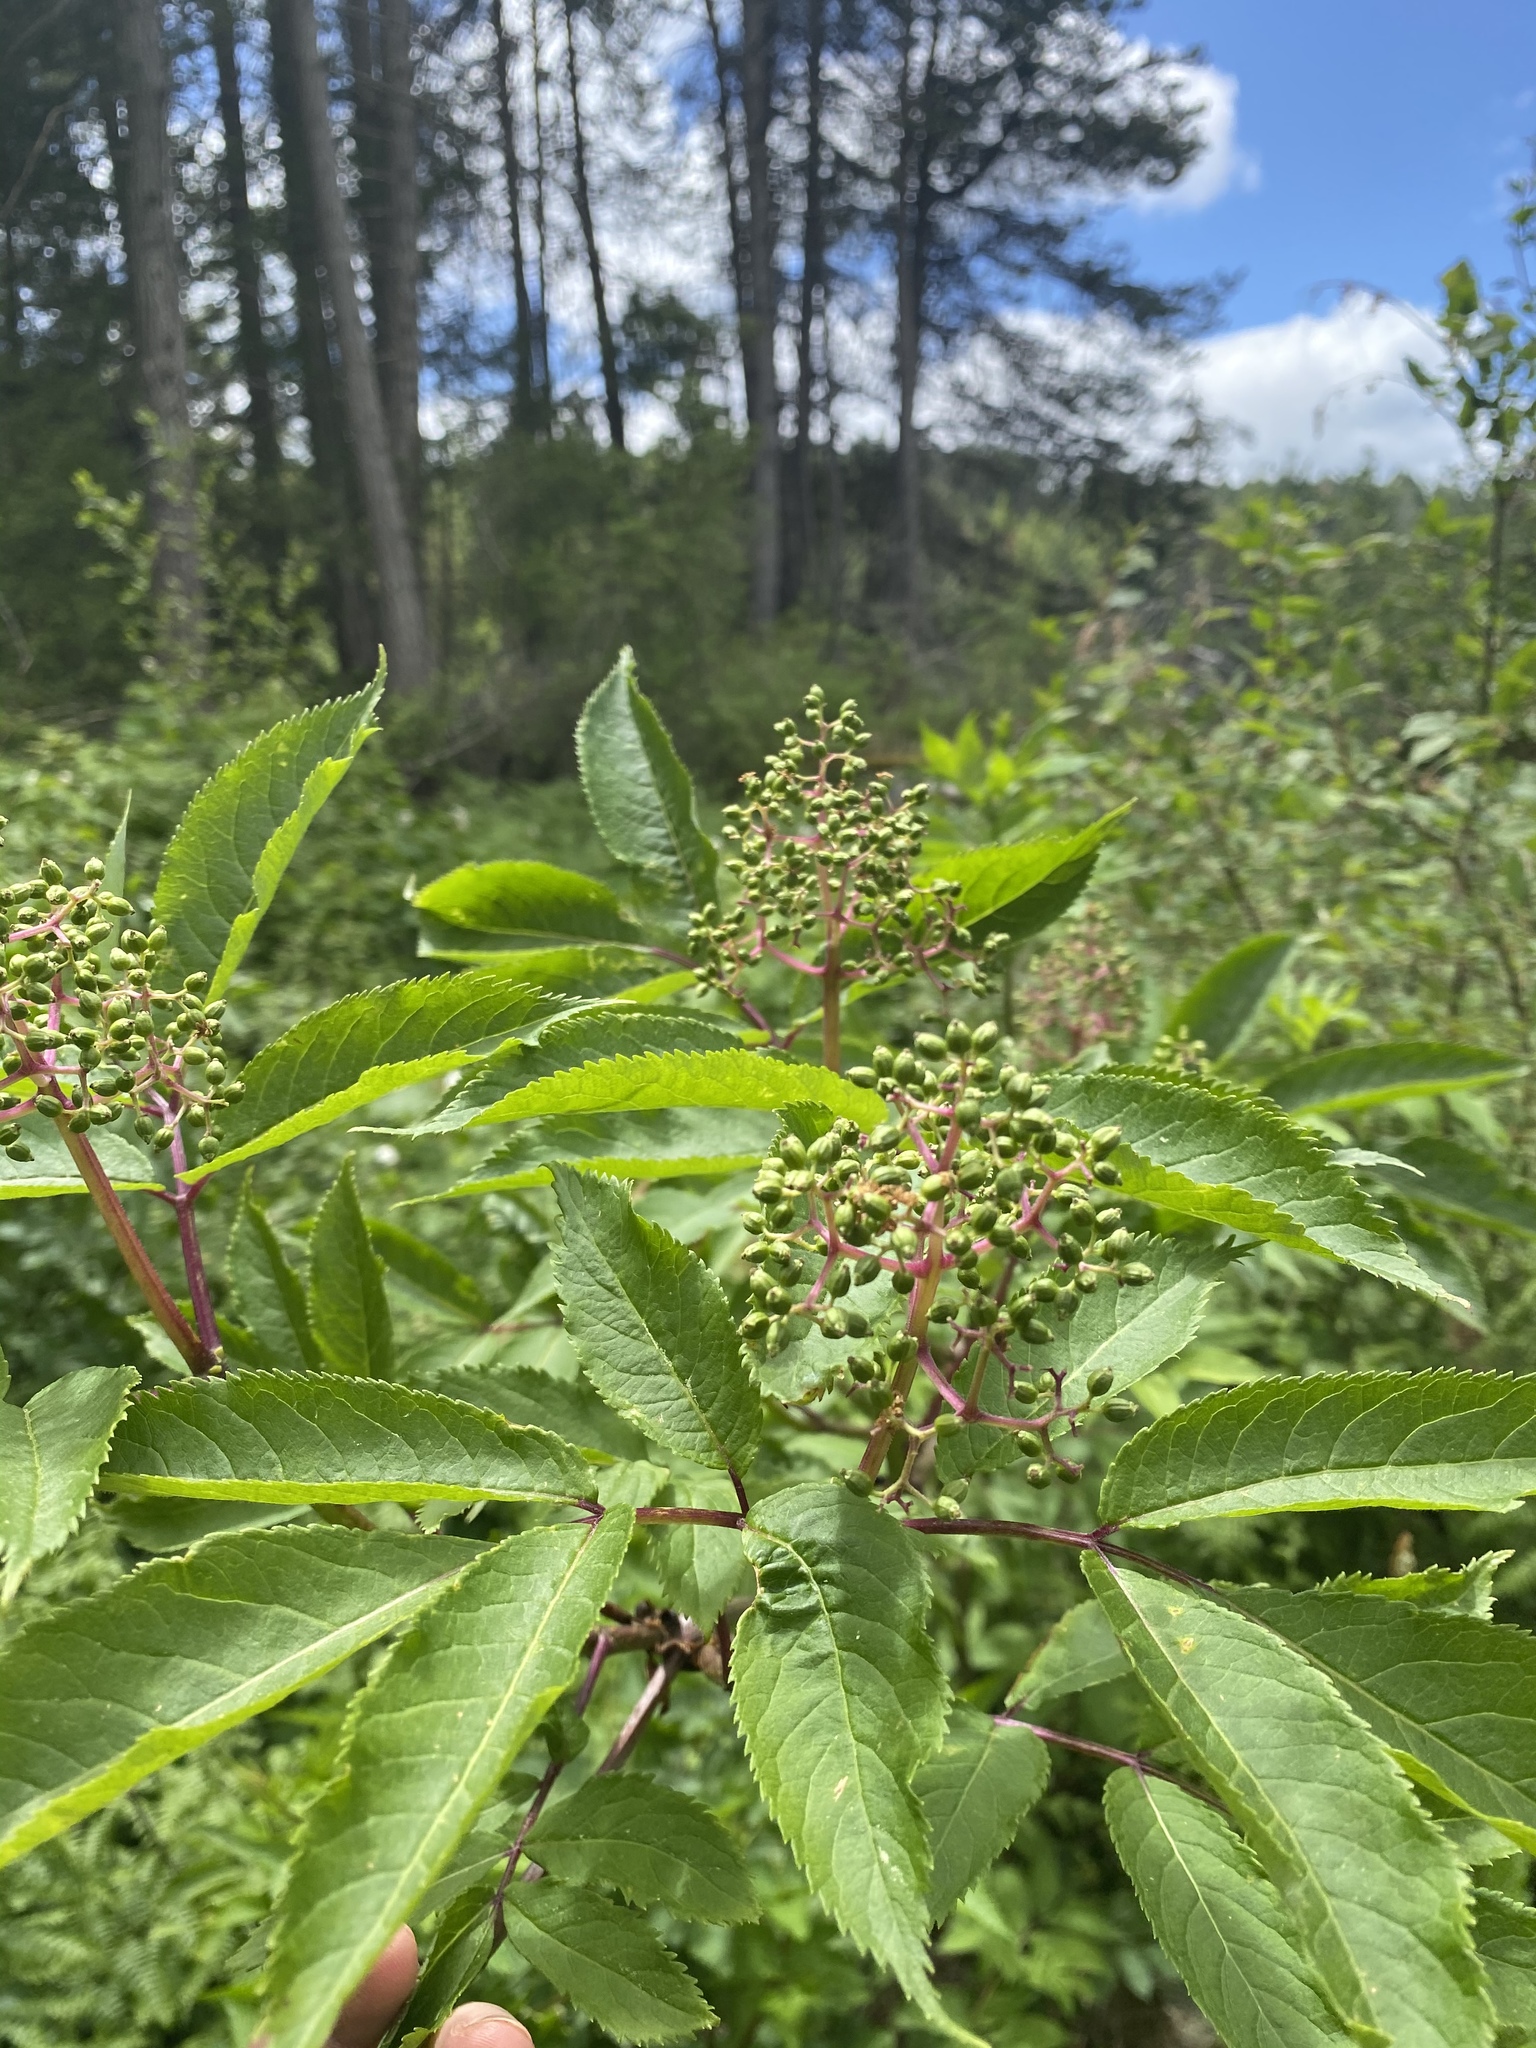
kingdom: Plantae
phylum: Tracheophyta
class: Magnoliopsida
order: Dipsacales
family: Viburnaceae
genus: Sambucus
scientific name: Sambucus racemosa
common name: Red-berried elder
